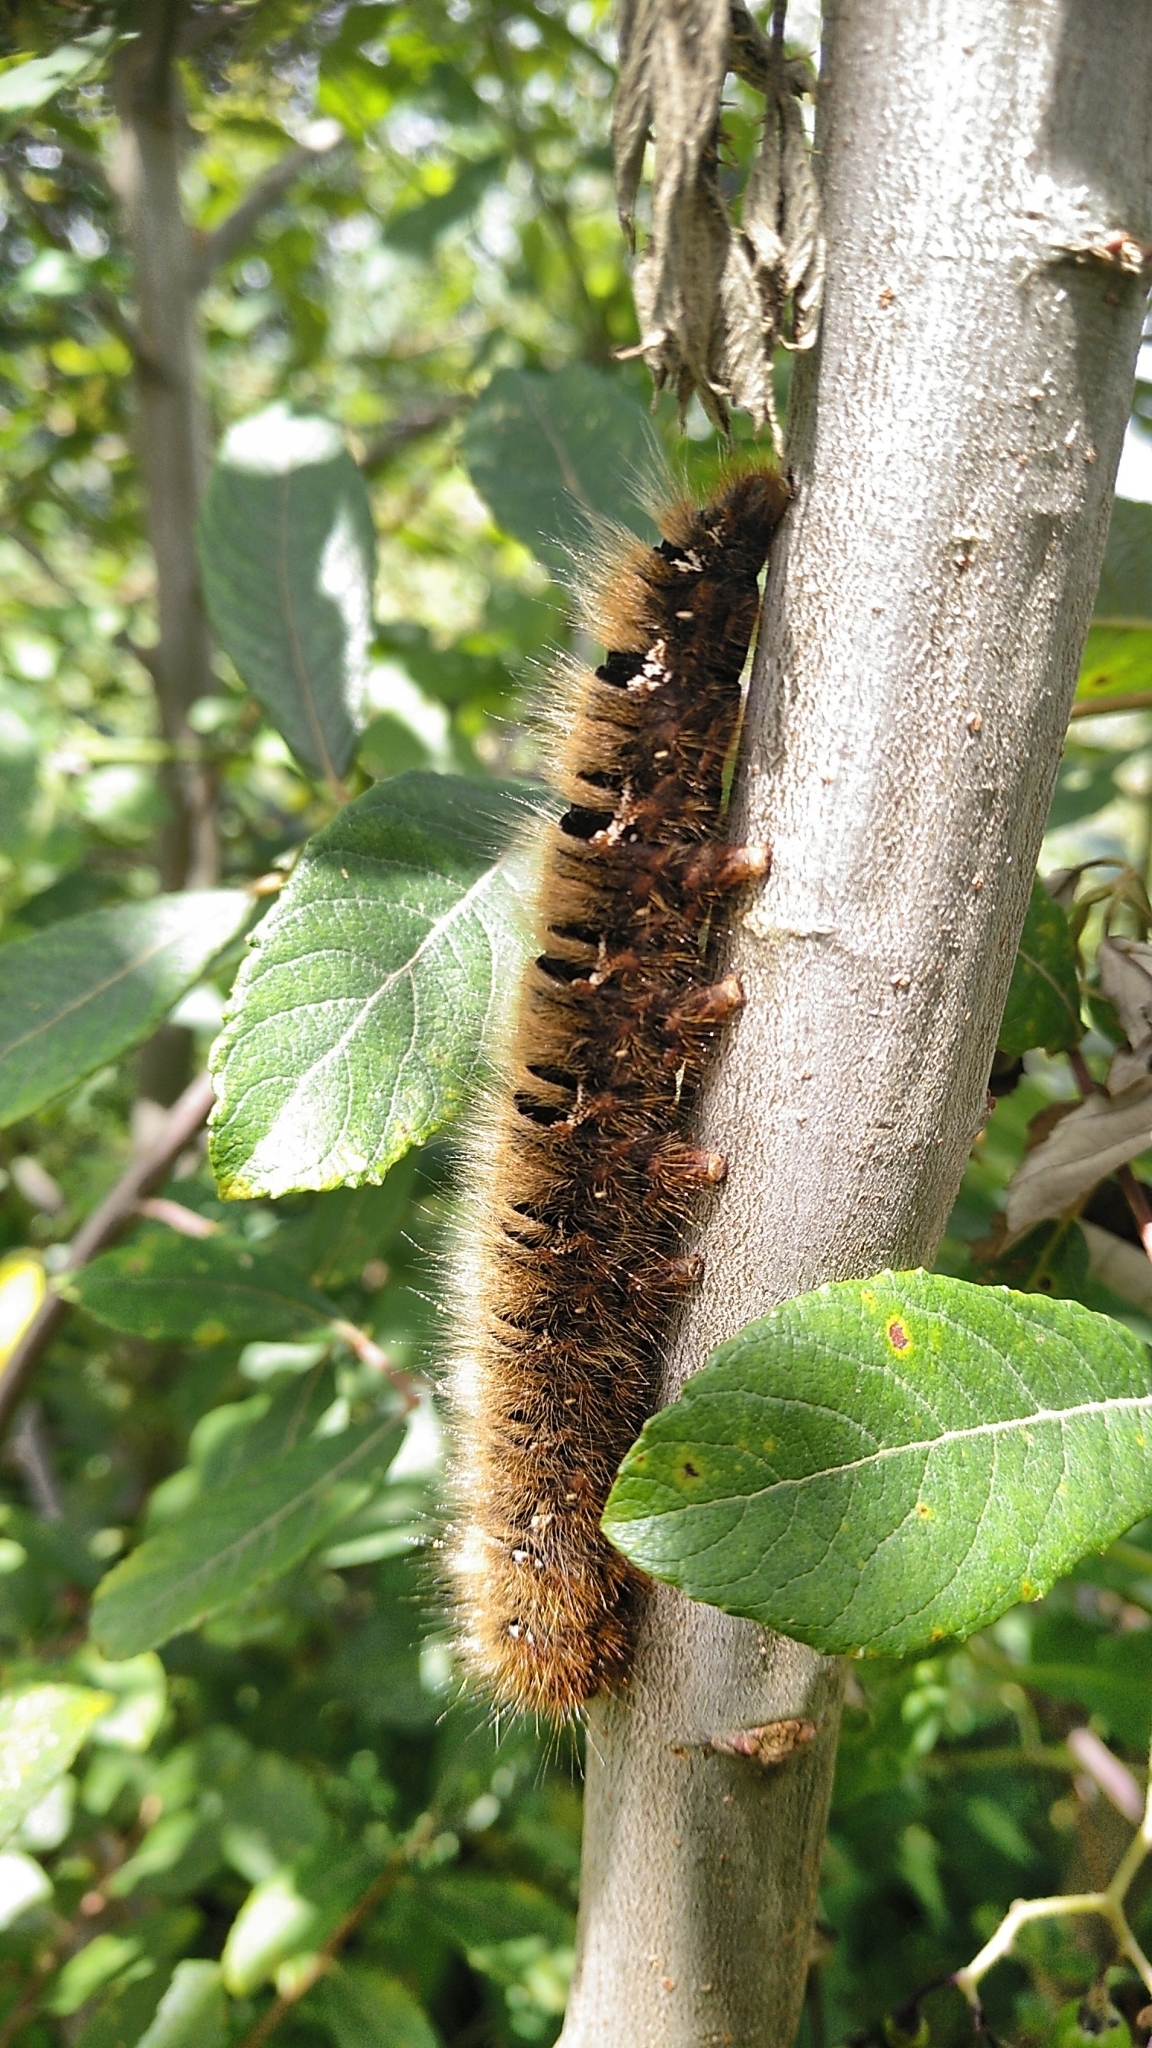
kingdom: Animalia
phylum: Arthropoda
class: Insecta
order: Lepidoptera
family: Lasiocampidae
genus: Lasiocampa
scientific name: Lasiocampa quercus
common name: Oak eggar
